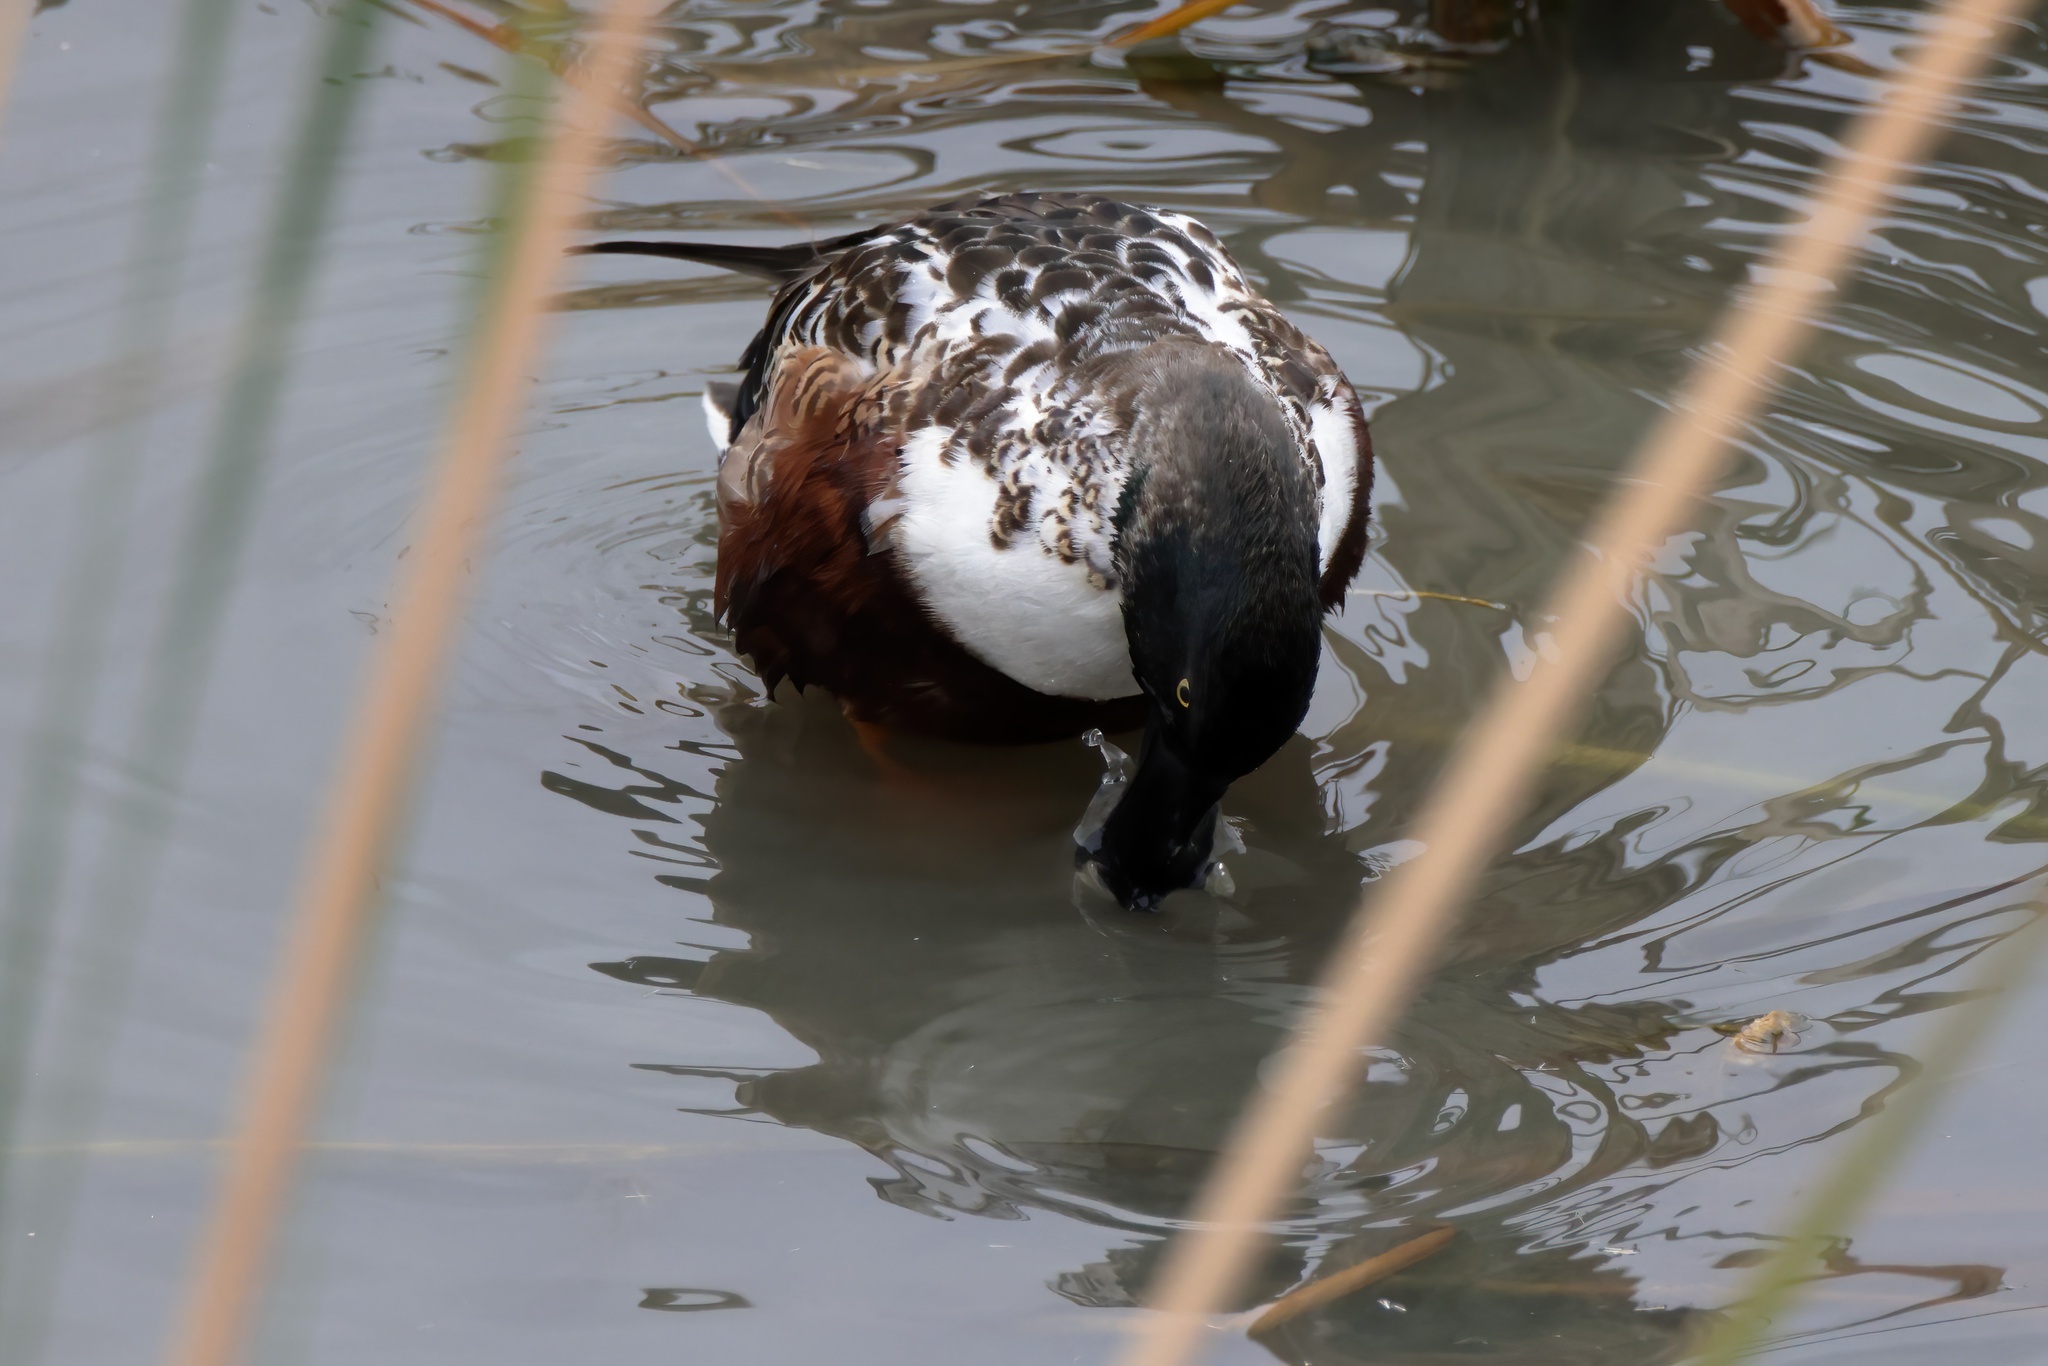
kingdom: Animalia
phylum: Chordata
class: Aves
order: Anseriformes
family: Anatidae
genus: Spatula
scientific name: Spatula clypeata
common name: Northern shoveler
